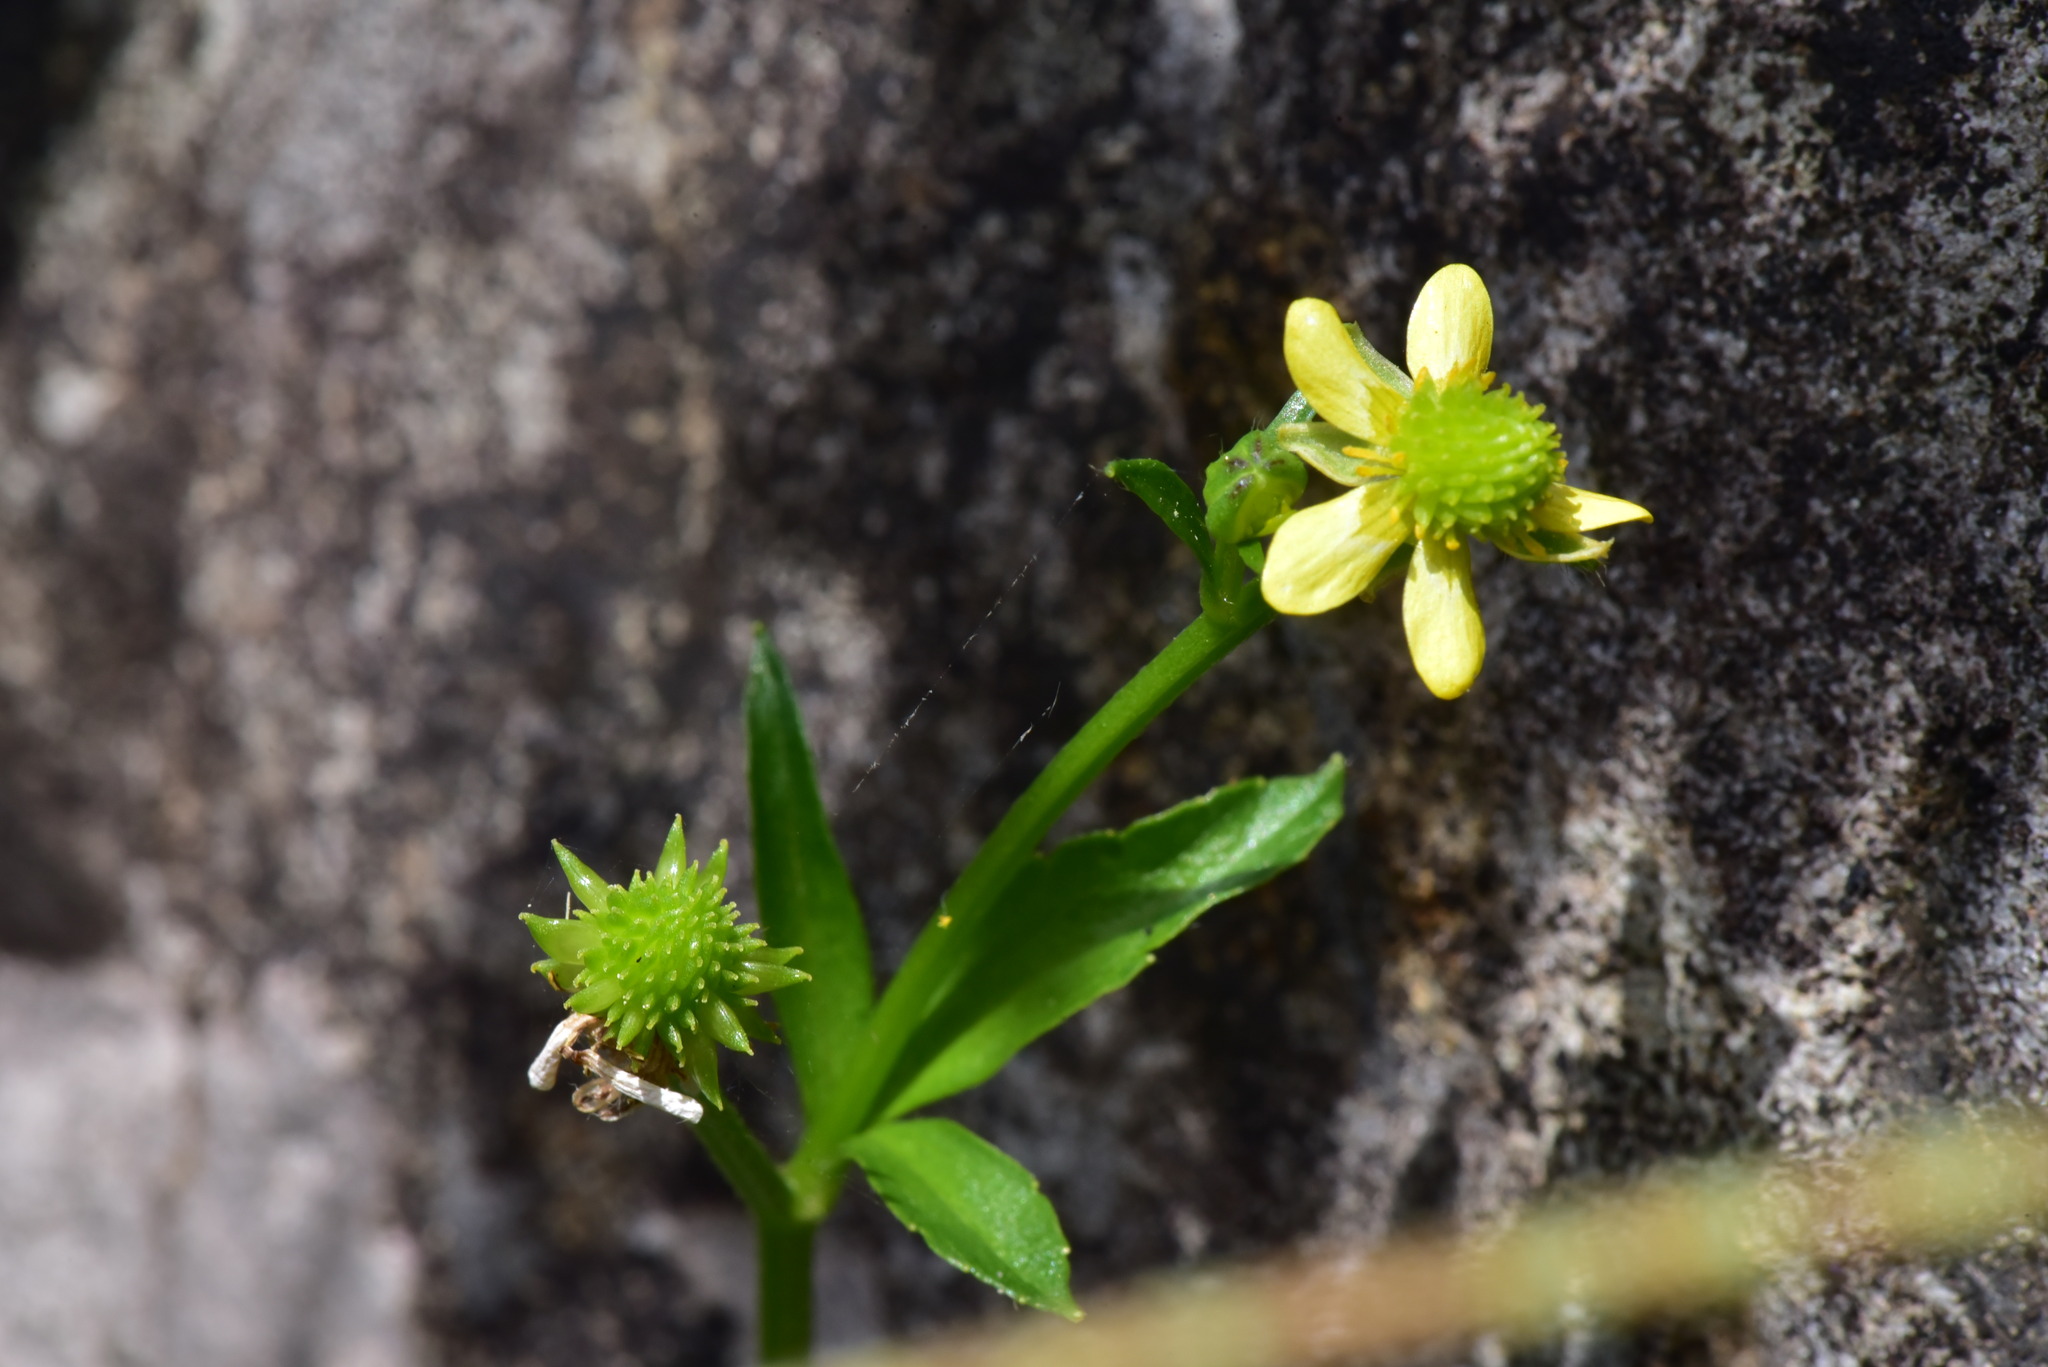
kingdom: Plantae
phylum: Tracheophyta
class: Magnoliopsida
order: Ranunculales
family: Ranunculaceae
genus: Ranunculus
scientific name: Ranunculus cantoniensis
